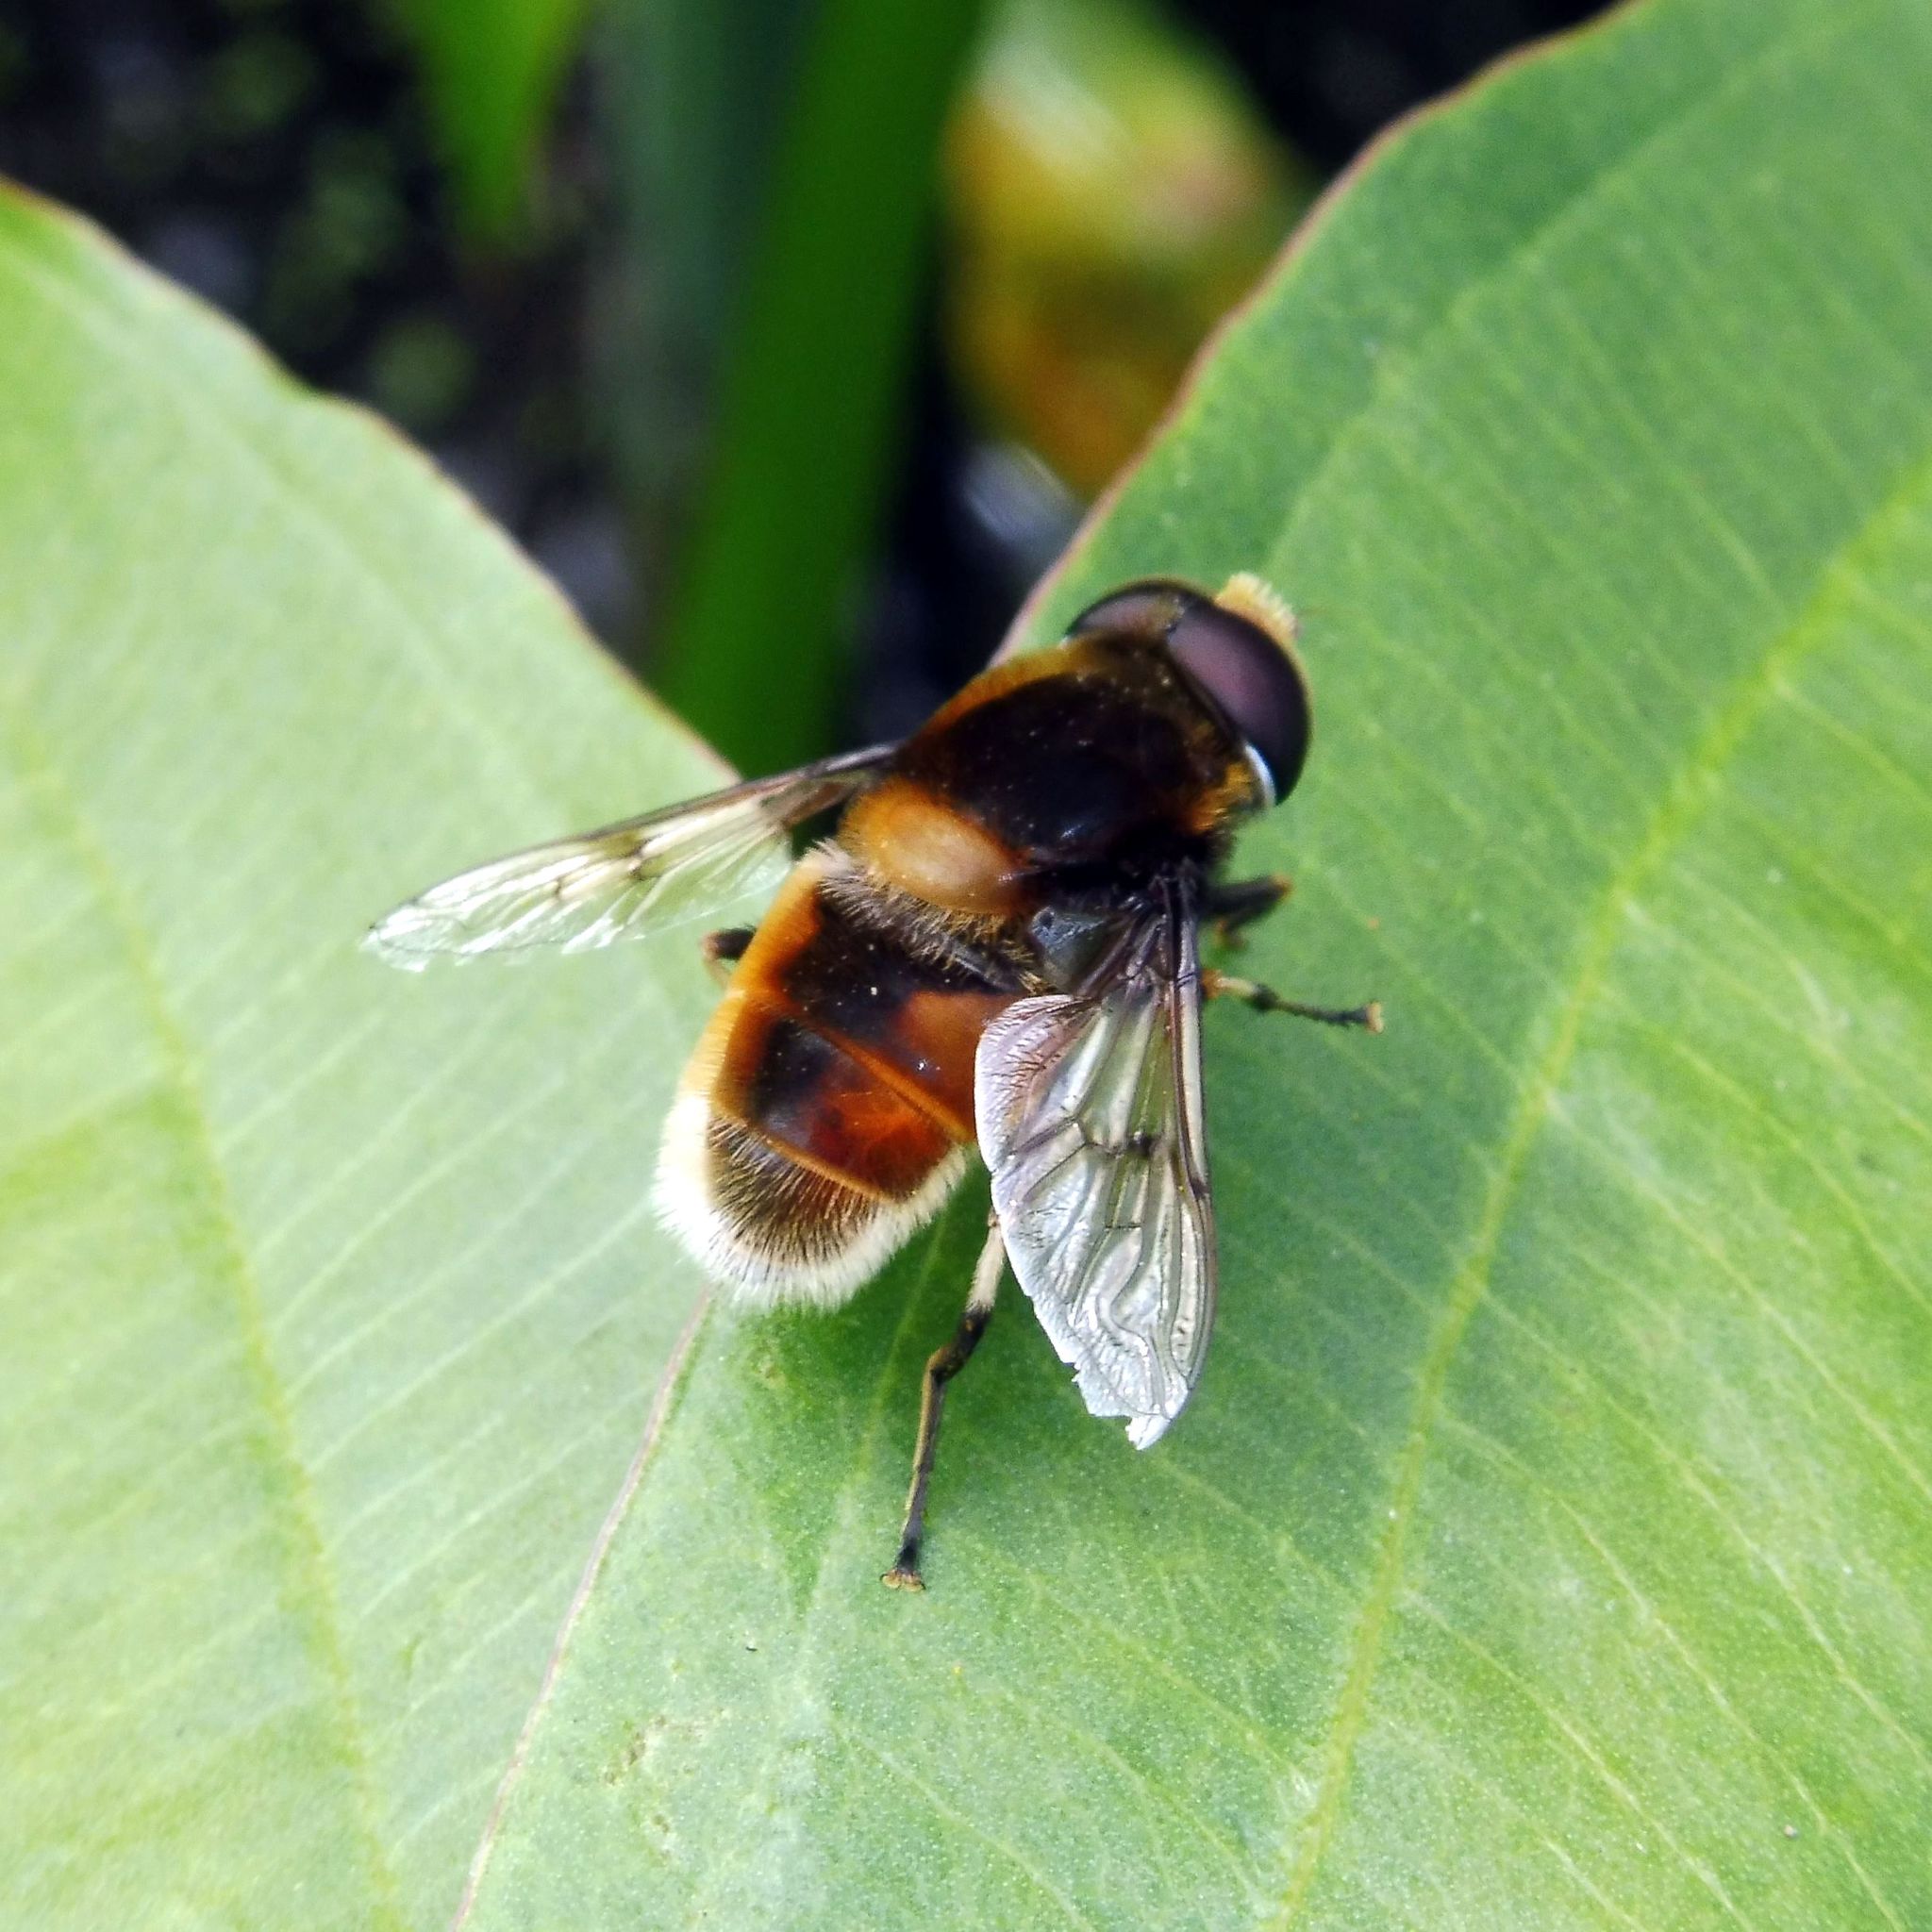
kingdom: Animalia
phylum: Arthropoda
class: Insecta
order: Diptera
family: Syrphidae
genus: Eristalis
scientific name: Eristalis intricaria
